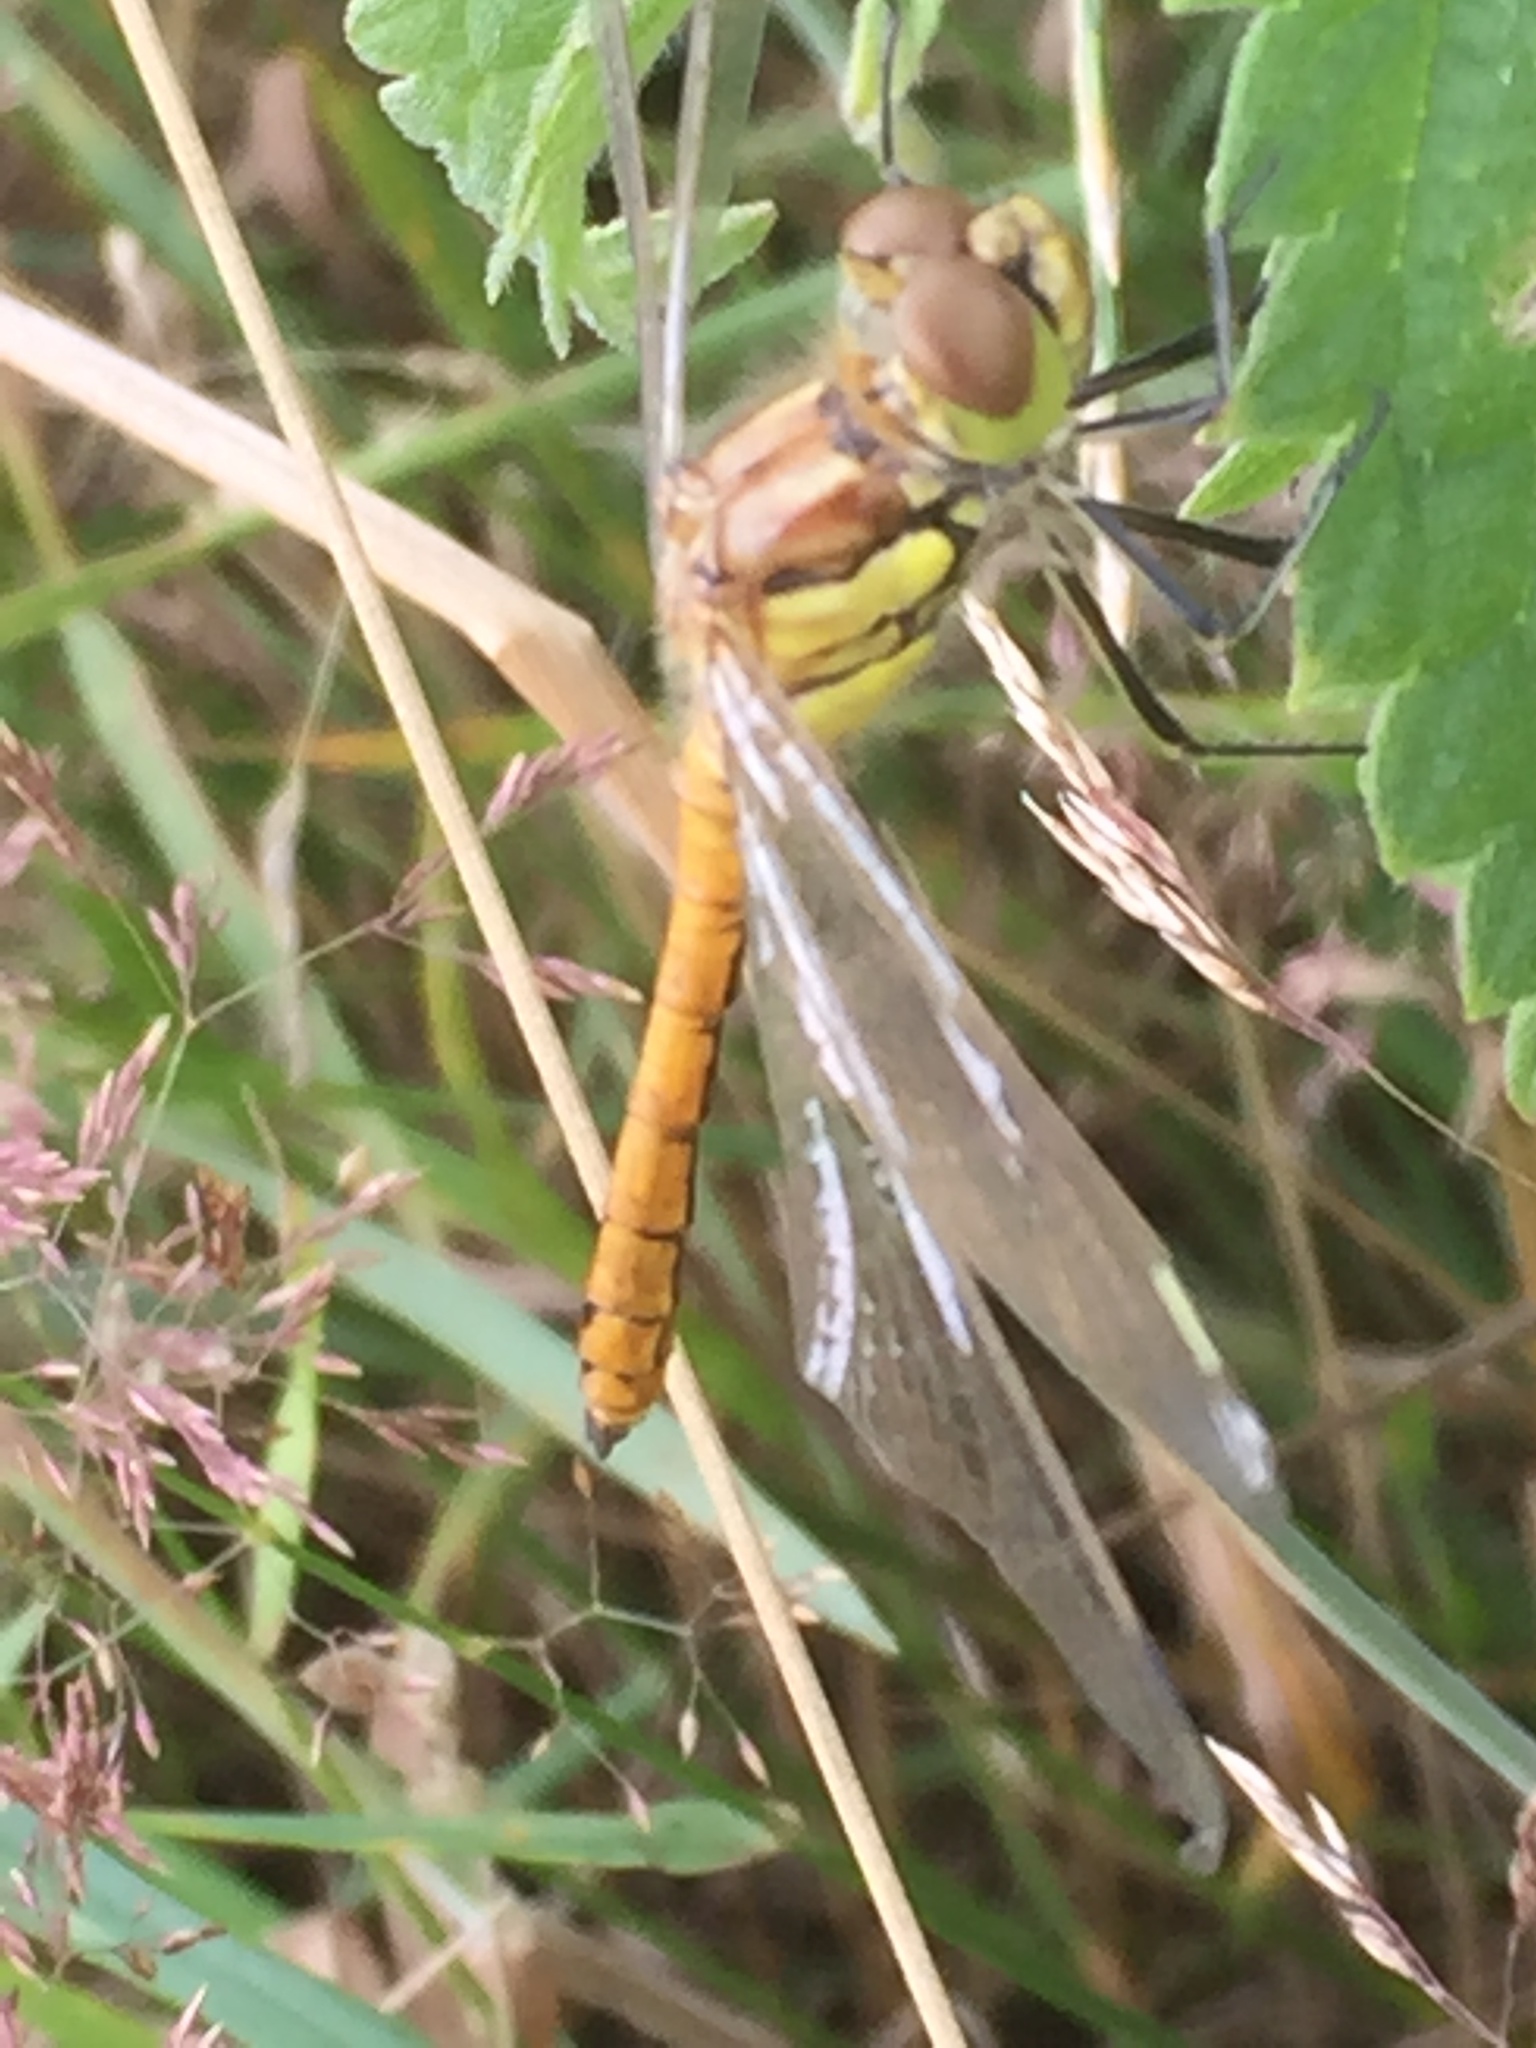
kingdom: Animalia
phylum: Arthropoda
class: Insecta
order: Odonata
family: Libellulidae
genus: Sympetrum
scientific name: Sympetrum vulgatum
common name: Vagrant darter
